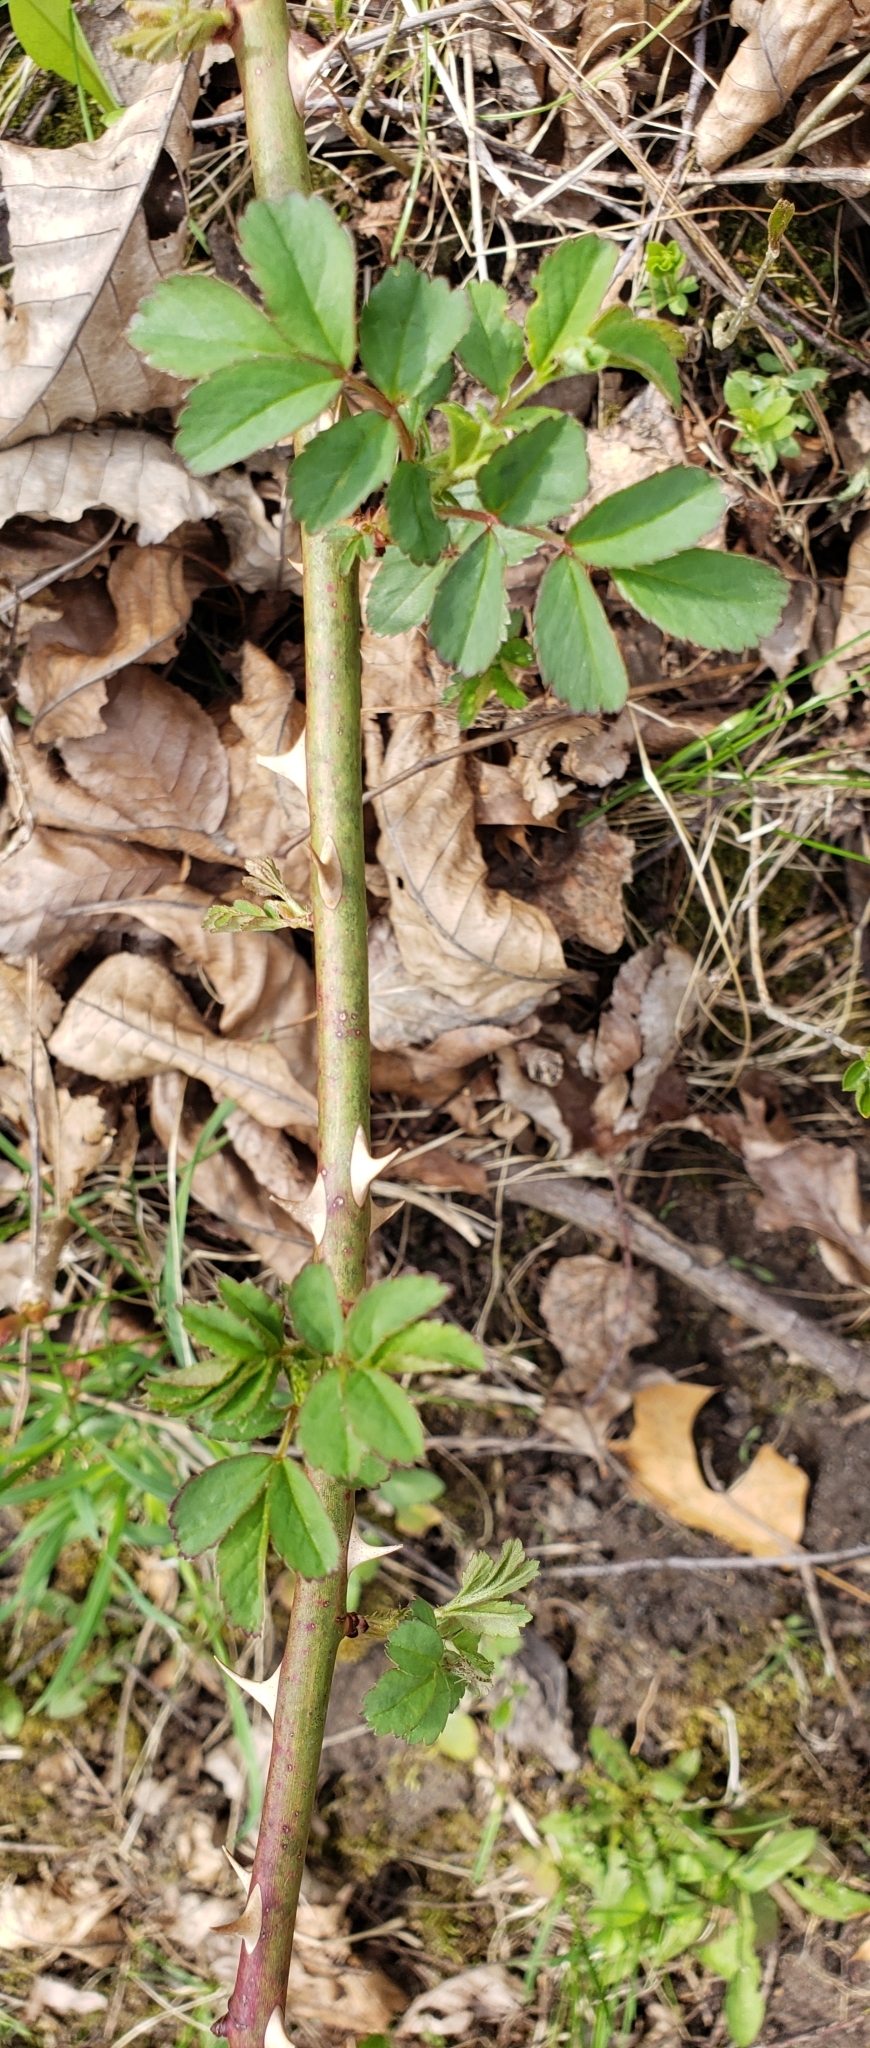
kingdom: Plantae
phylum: Tracheophyta
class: Magnoliopsida
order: Rosales
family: Rosaceae
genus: Rosa
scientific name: Rosa multiflora
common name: Multiflora rose
